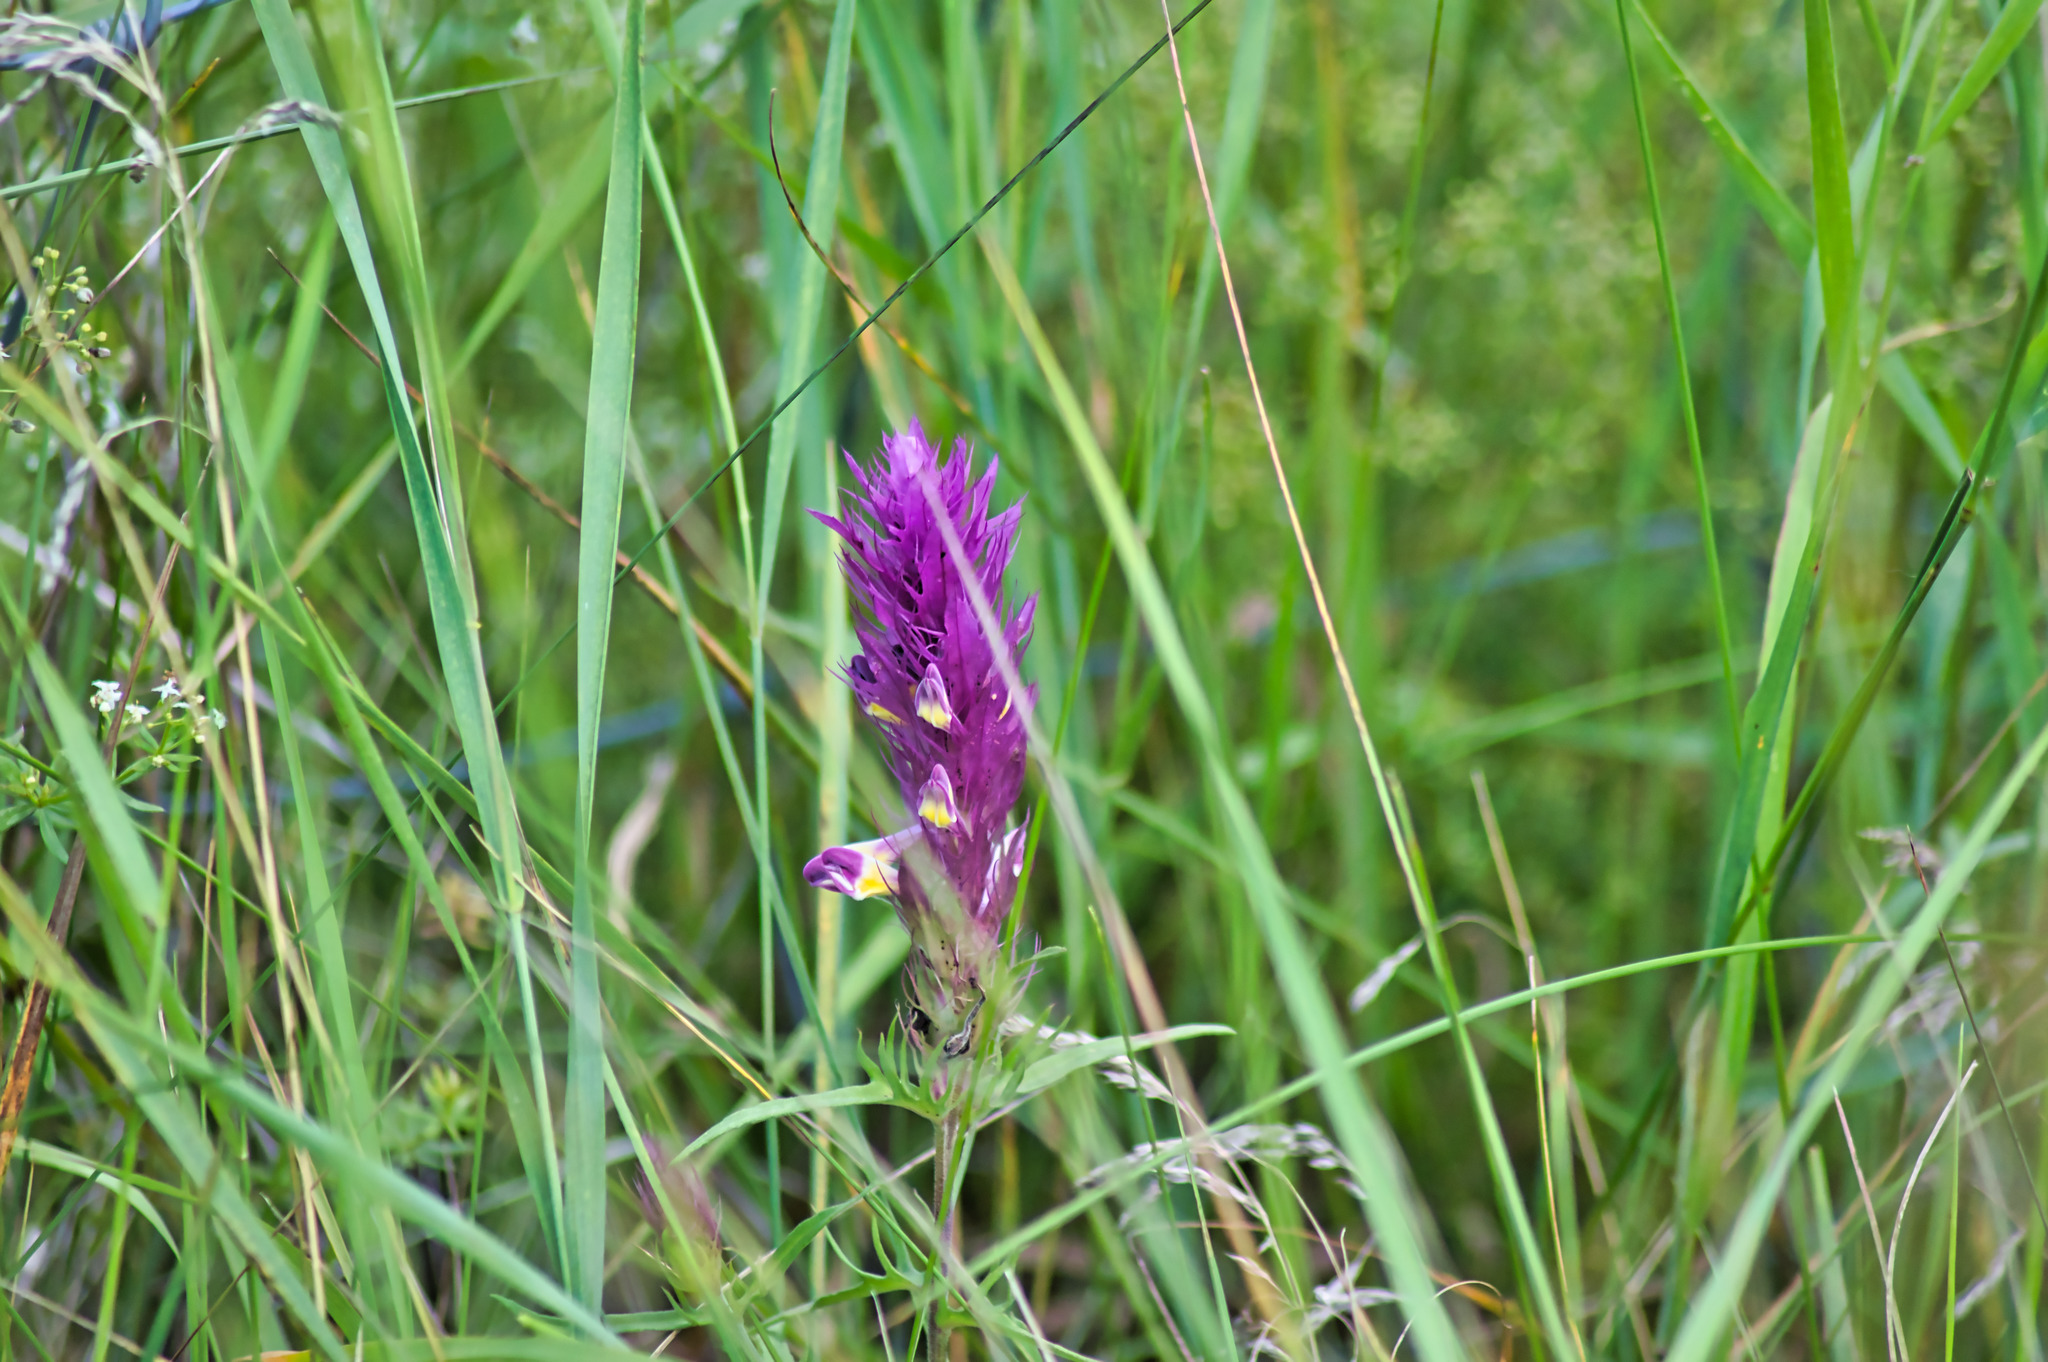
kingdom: Plantae
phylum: Tracheophyta
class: Magnoliopsida
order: Lamiales
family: Orobanchaceae
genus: Melampyrum
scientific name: Melampyrum arvense
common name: Field cow-wheat
